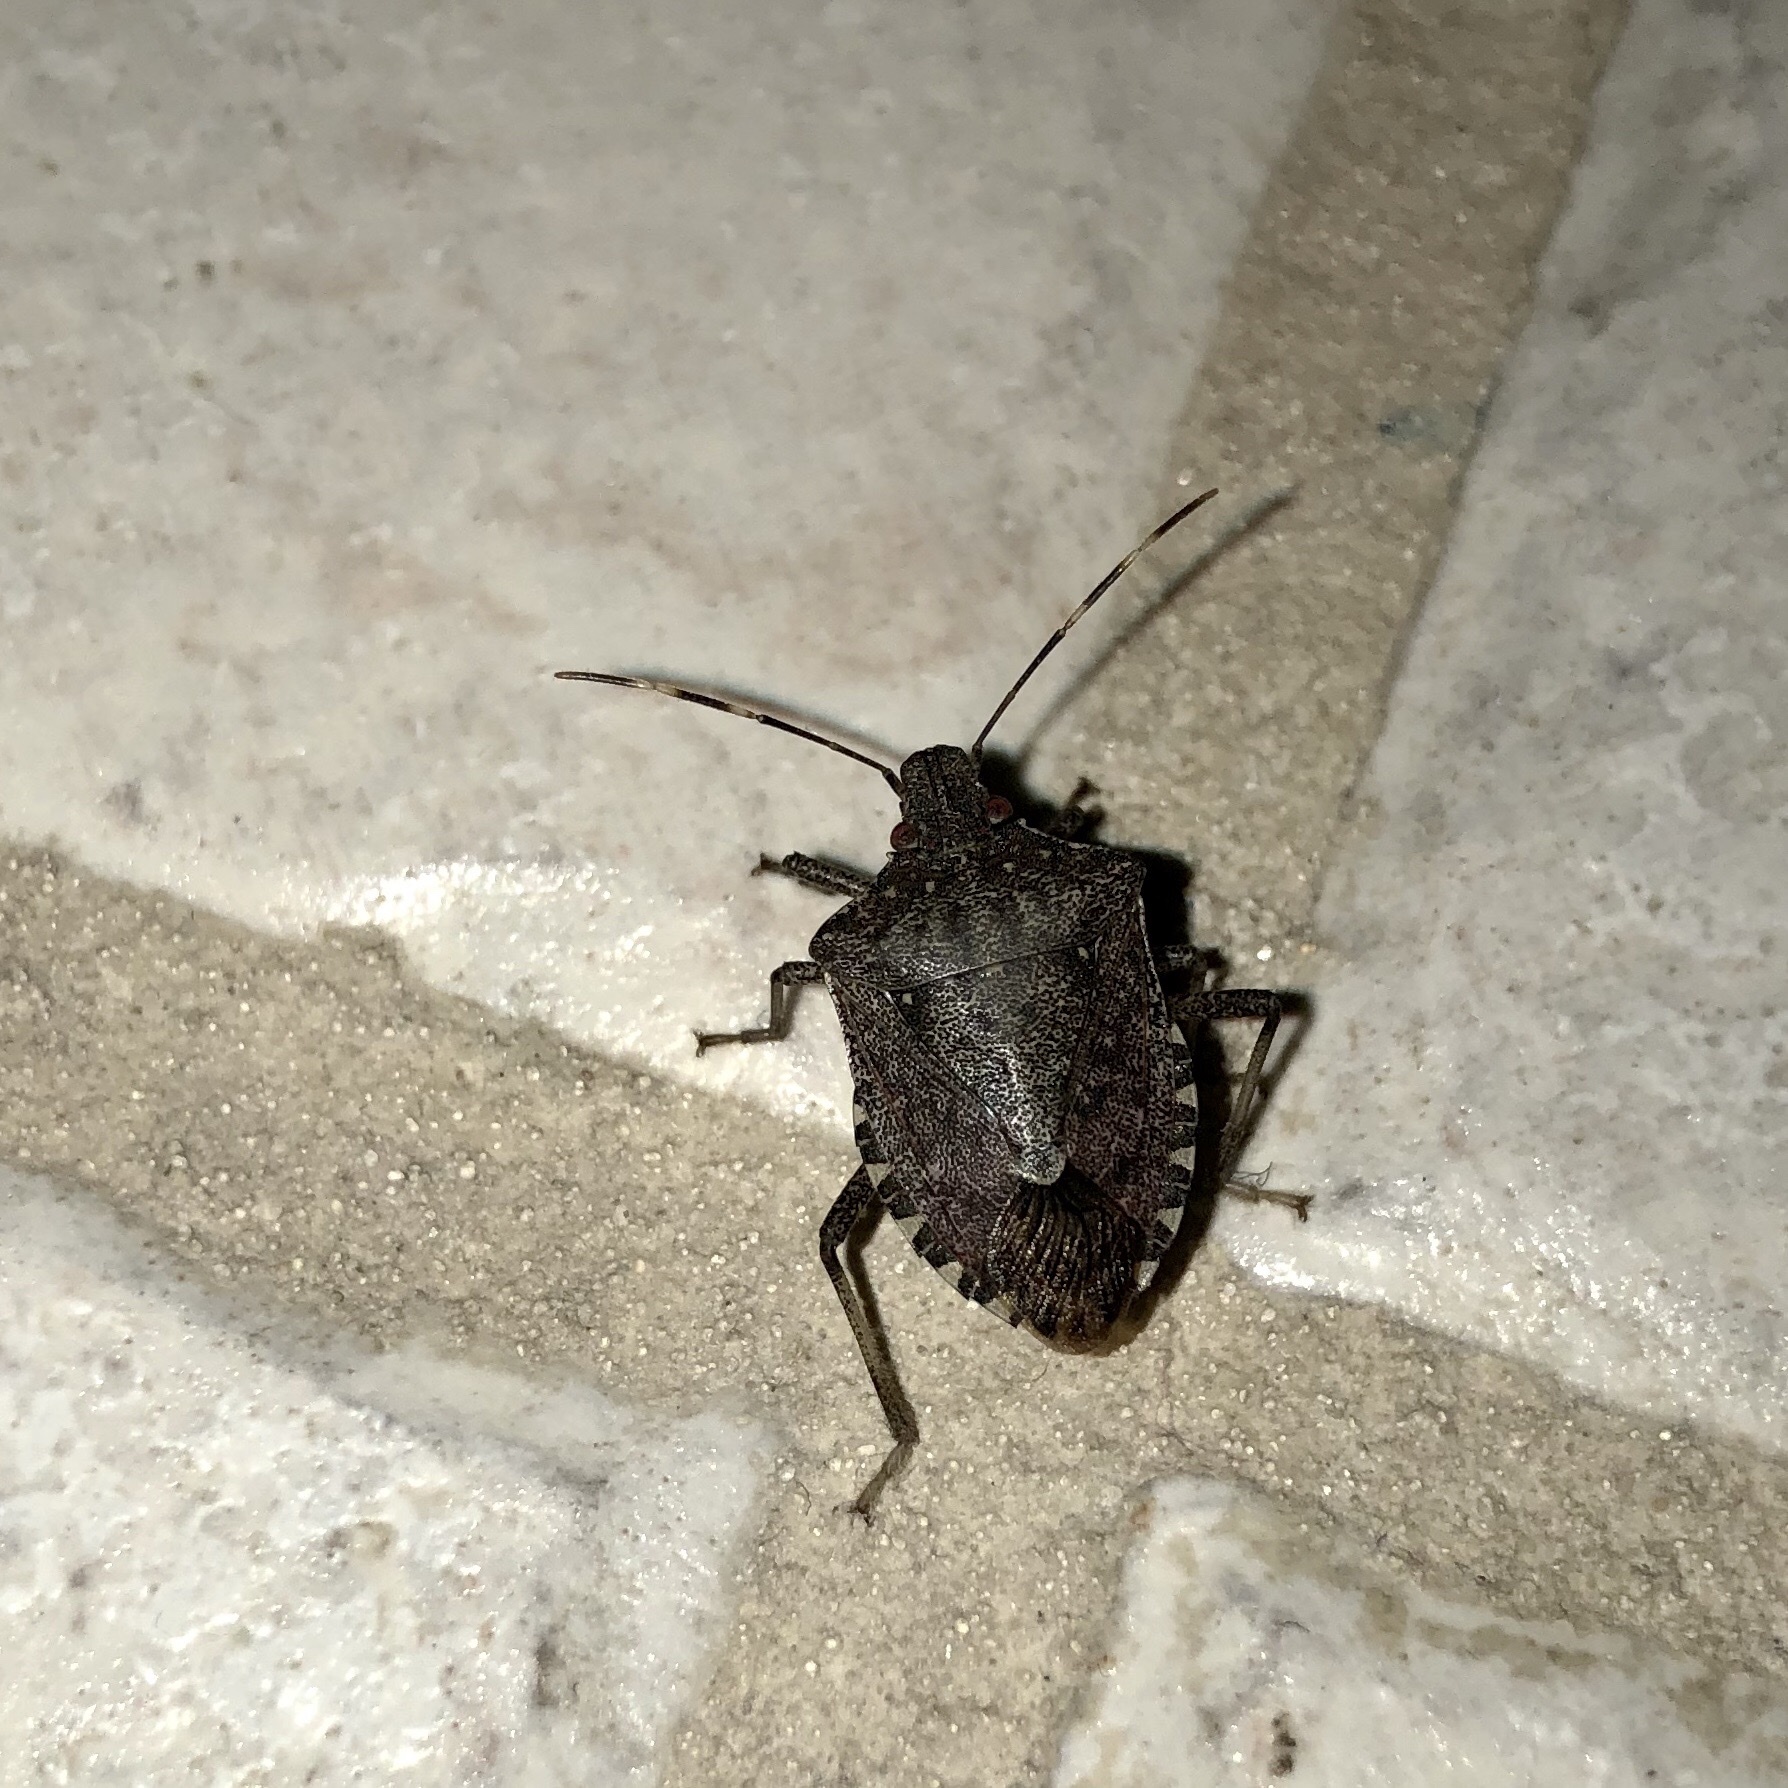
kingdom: Animalia
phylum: Arthropoda
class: Insecta
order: Hemiptera
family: Pentatomidae
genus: Halyomorpha
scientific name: Halyomorpha halys
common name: Brown marmorated stink bug
